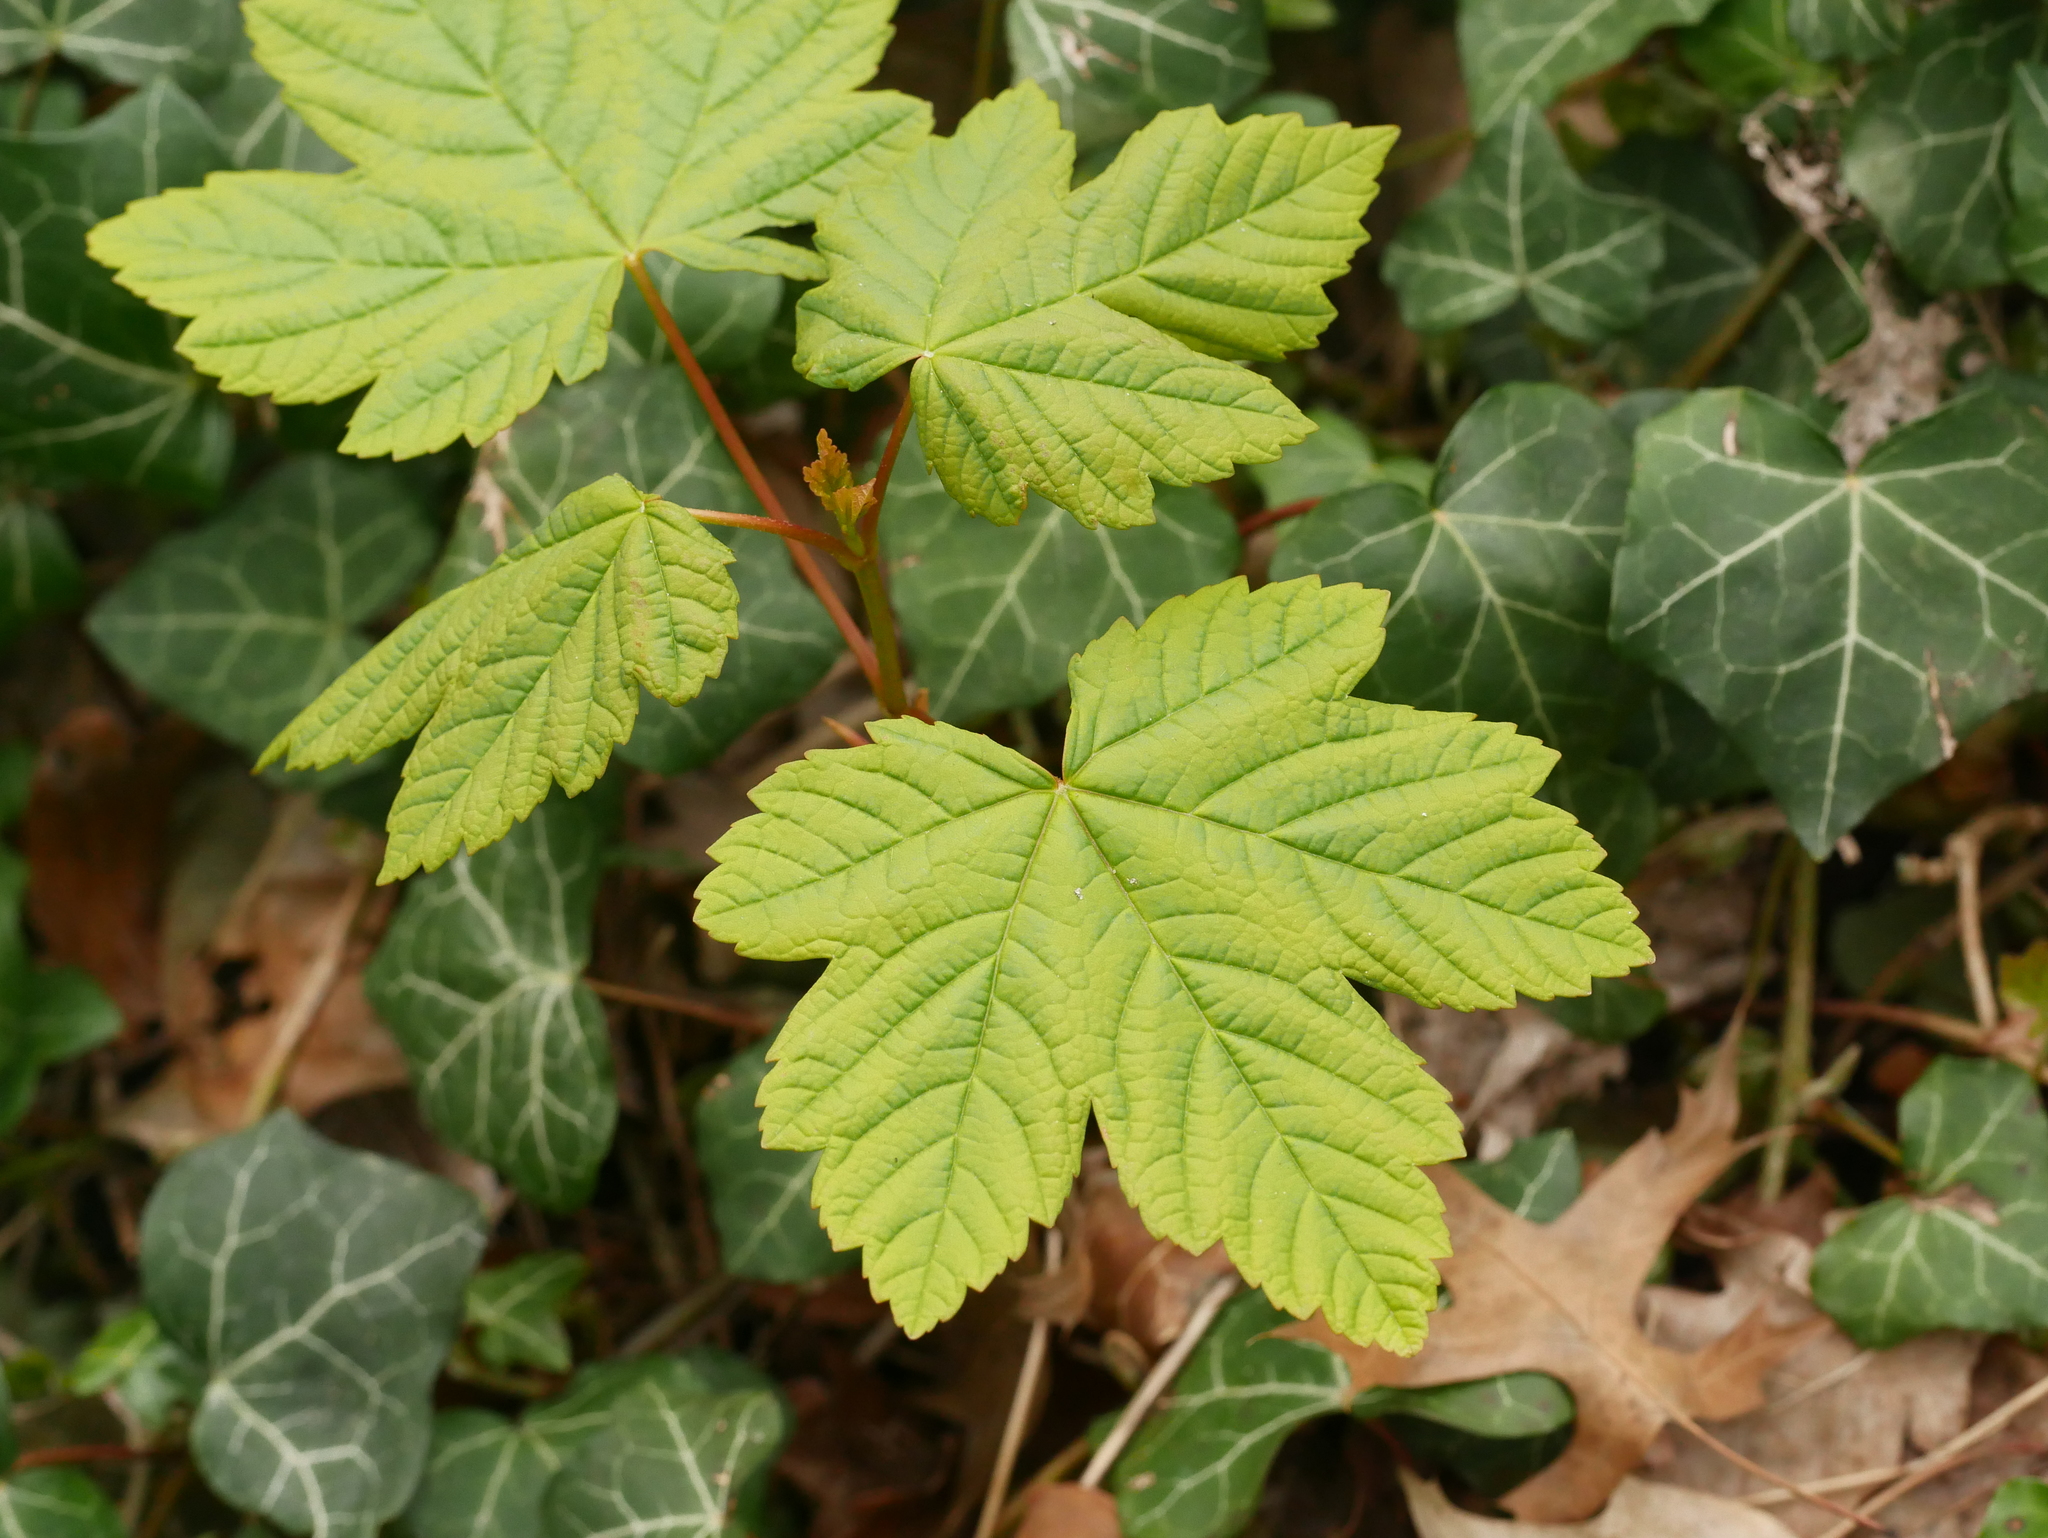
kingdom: Plantae
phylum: Tracheophyta
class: Magnoliopsida
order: Sapindales
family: Sapindaceae
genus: Acer
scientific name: Acer pseudoplatanus
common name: Sycamore
